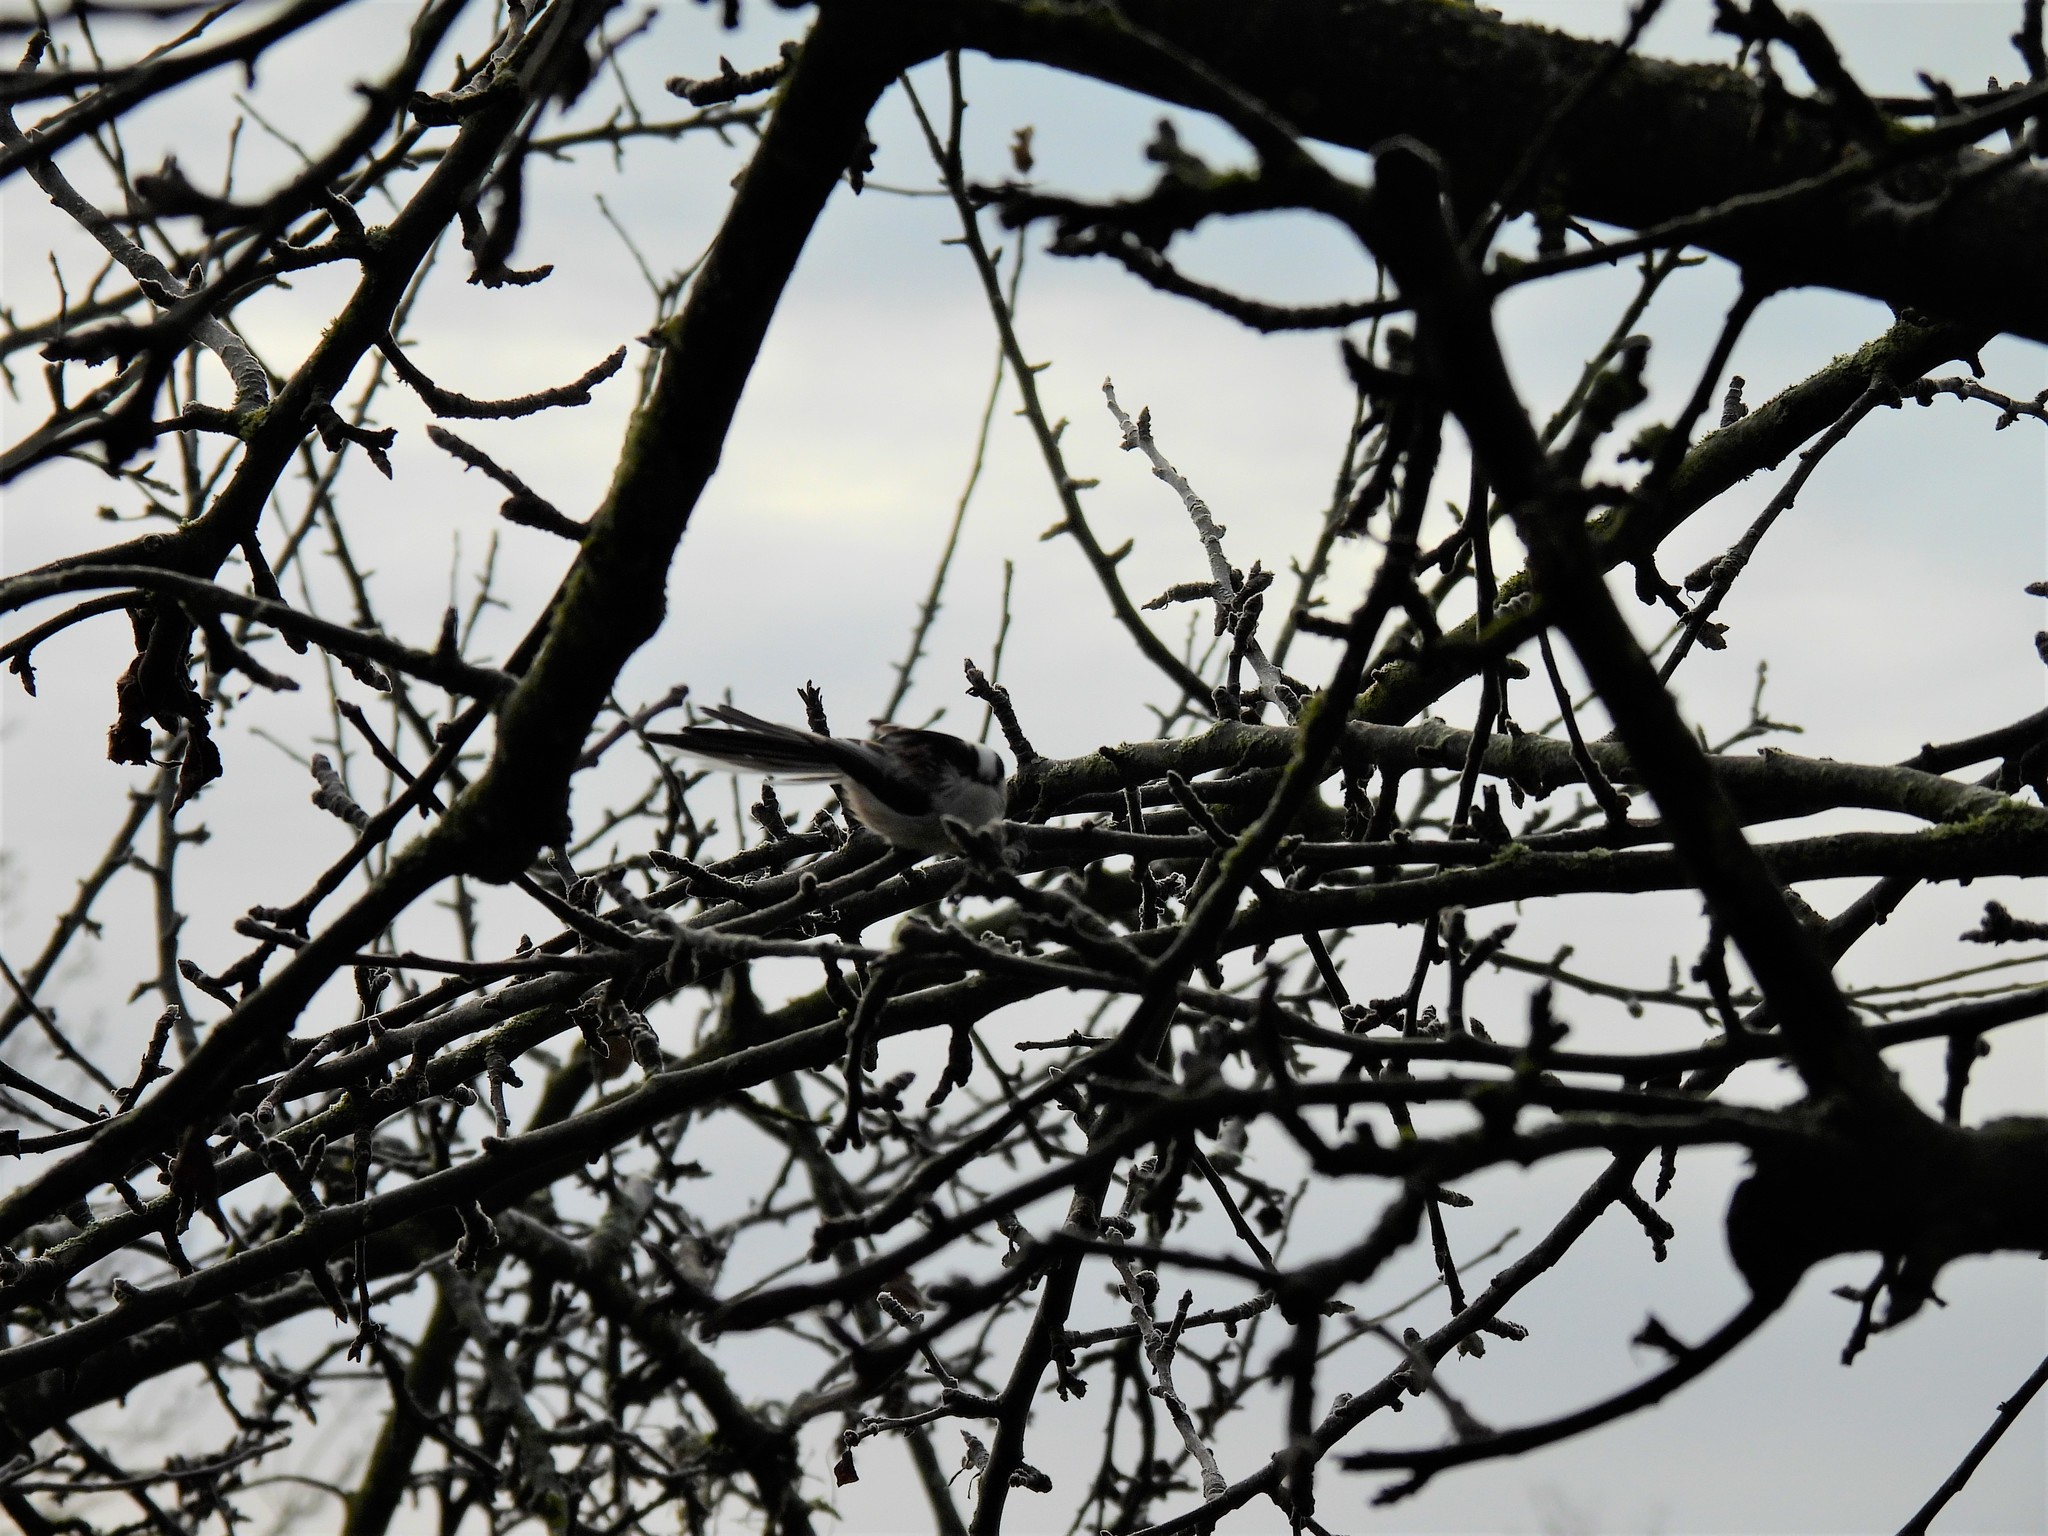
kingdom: Animalia
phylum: Chordata
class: Aves
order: Passeriformes
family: Aegithalidae
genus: Aegithalos
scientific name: Aegithalos caudatus
